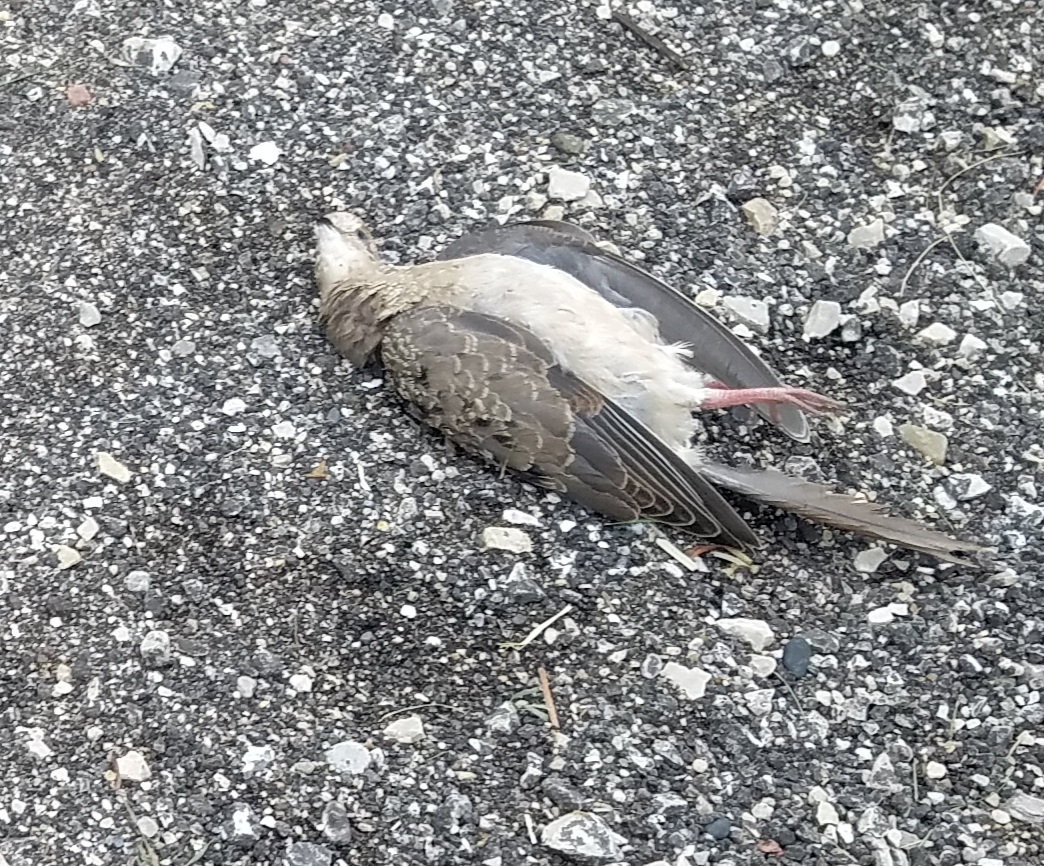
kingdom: Animalia
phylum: Chordata
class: Aves
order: Columbiformes
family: Columbidae
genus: Zenaida
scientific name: Zenaida macroura
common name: Mourning dove
